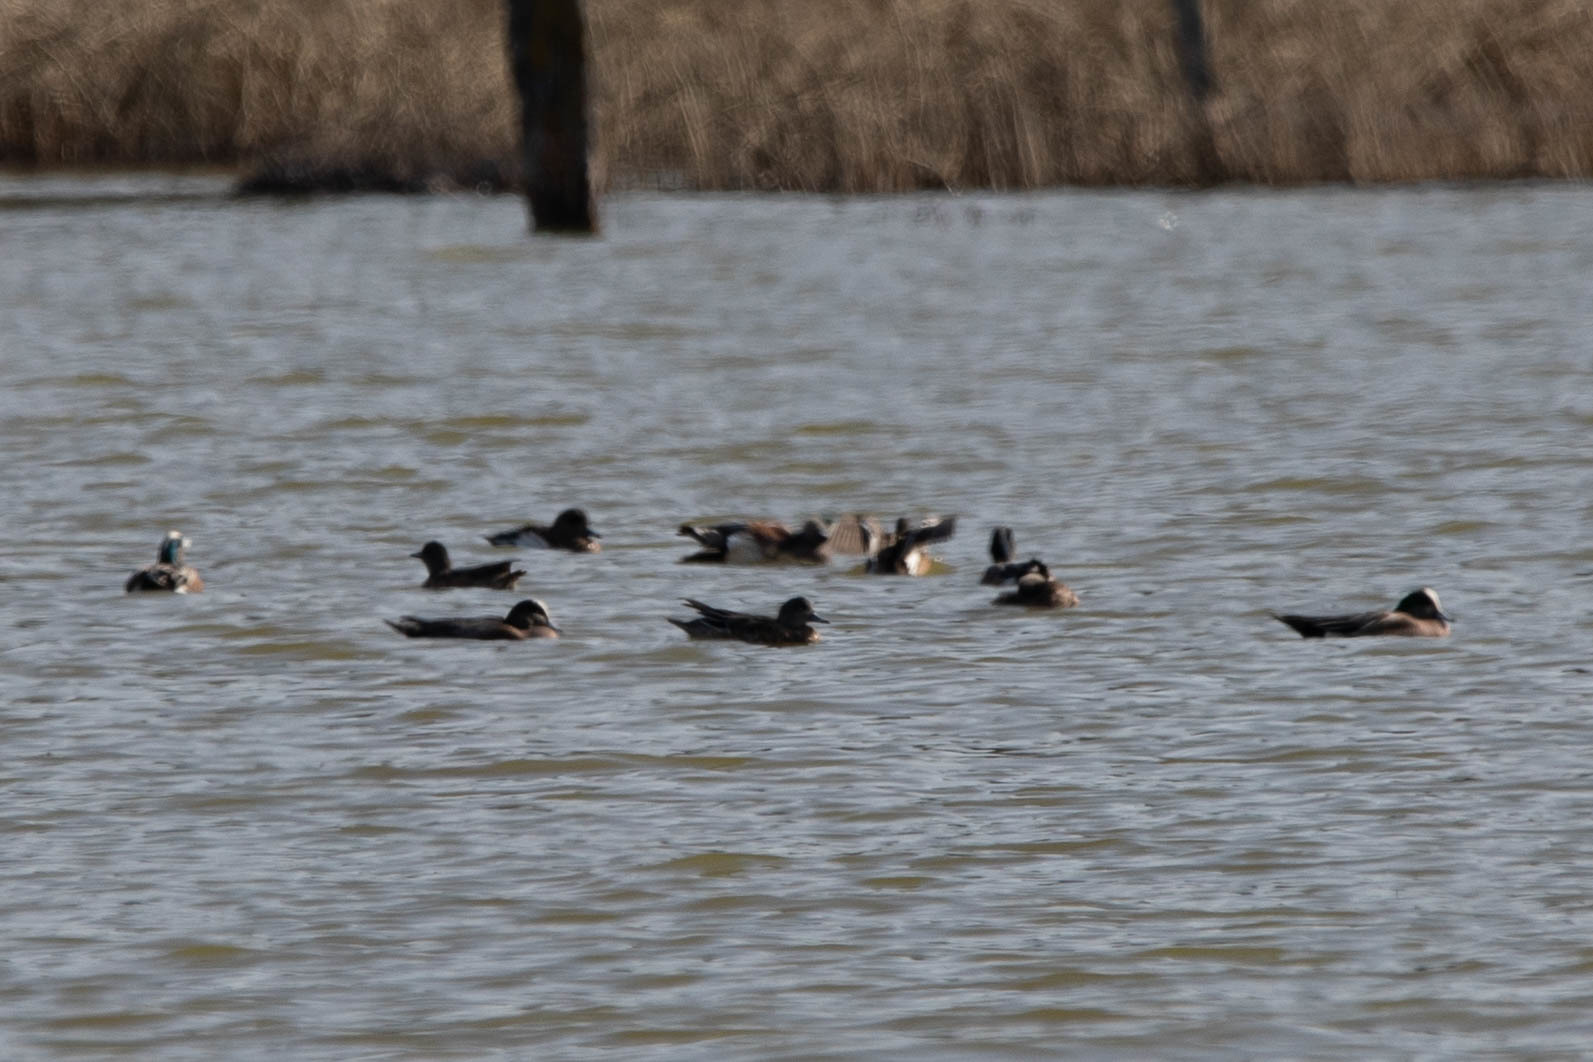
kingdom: Animalia
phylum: Chordata
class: Aves
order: Anseriformes
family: Anatidae
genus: Mareca
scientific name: Mareca americana
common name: American wigeon
